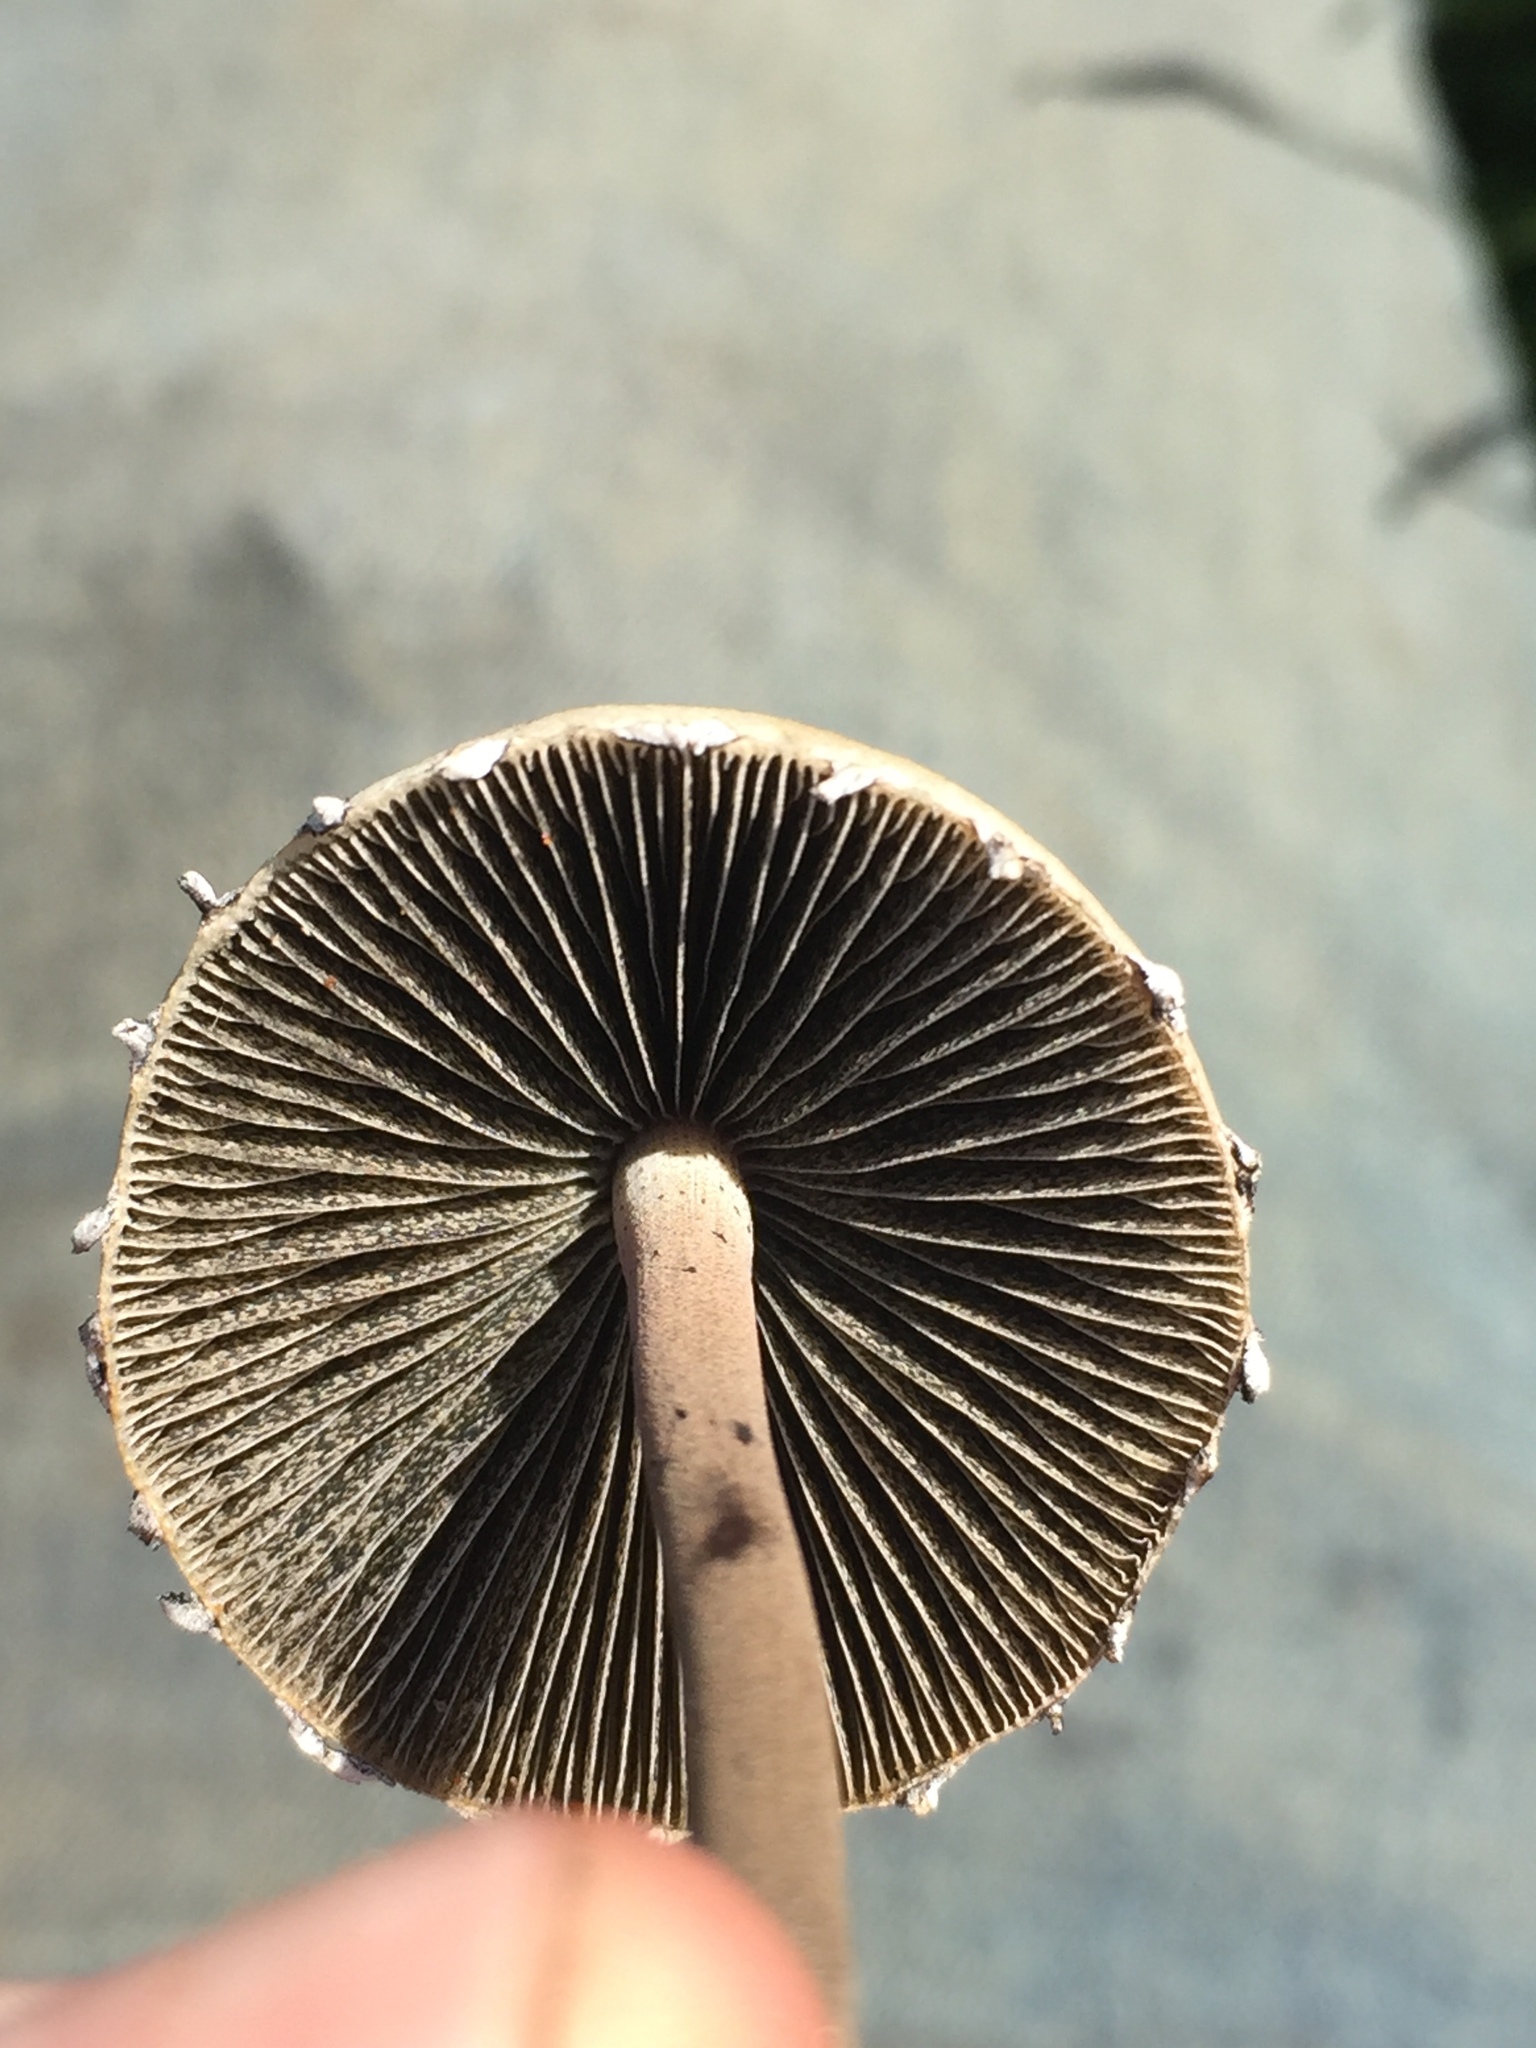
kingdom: Fungi
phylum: Basidiomycota
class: Agaricomycetes
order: Agaricales
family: Bolbitiaceae
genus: Panaeolus
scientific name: Panaeolus papilionaceus
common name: Petticoat mottlegill
